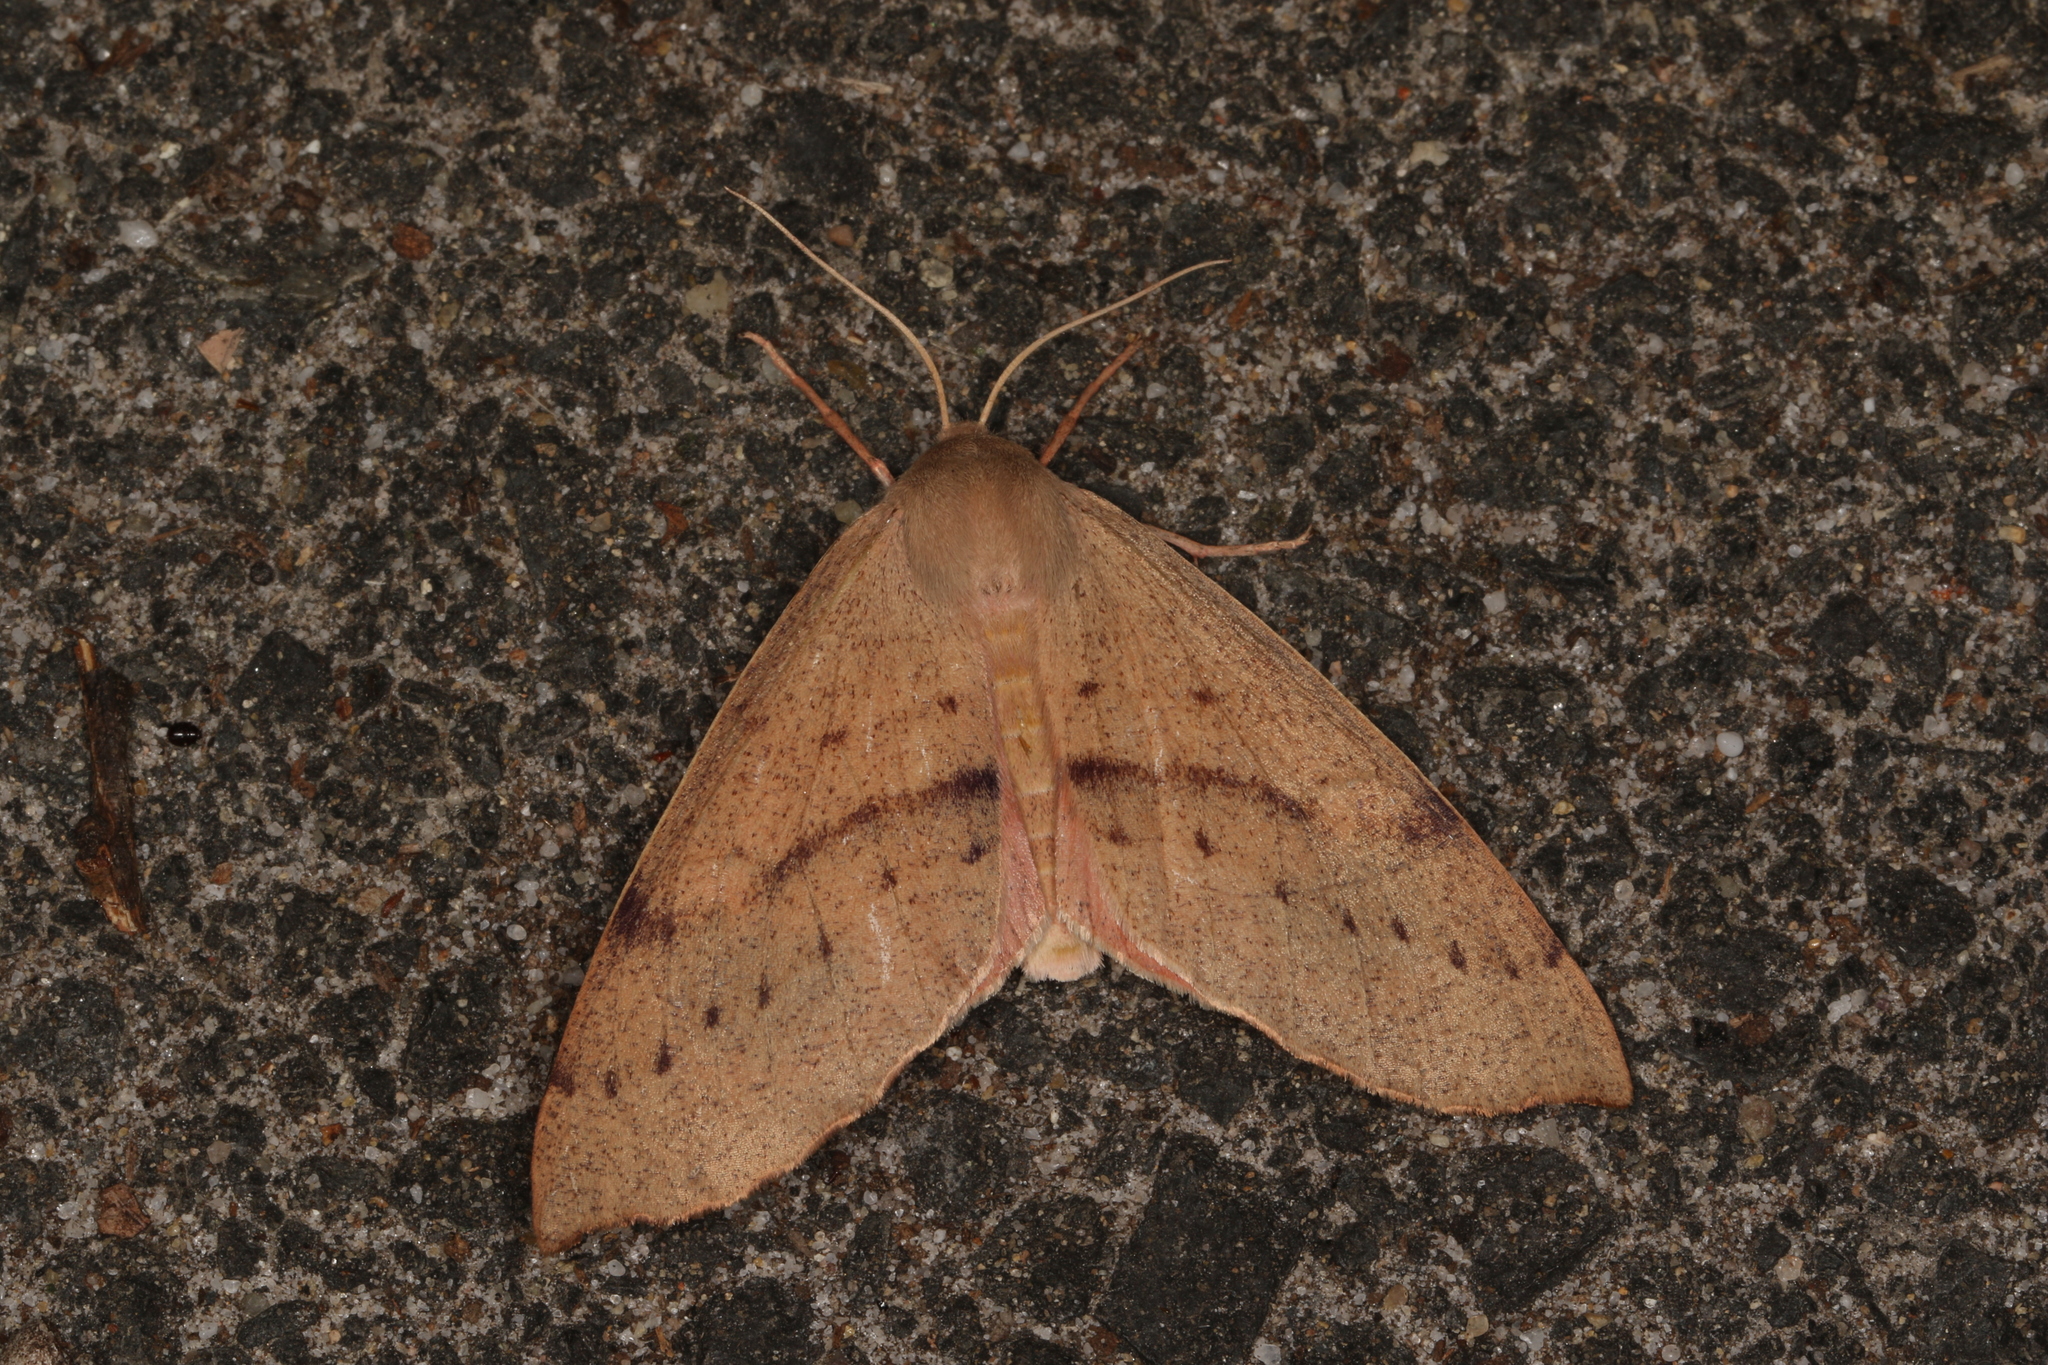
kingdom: Animalia
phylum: Arthropoda
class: Insecta
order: Lepidoptera
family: Geometridae
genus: Arhodia
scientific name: Arhodia lasiocamparia
